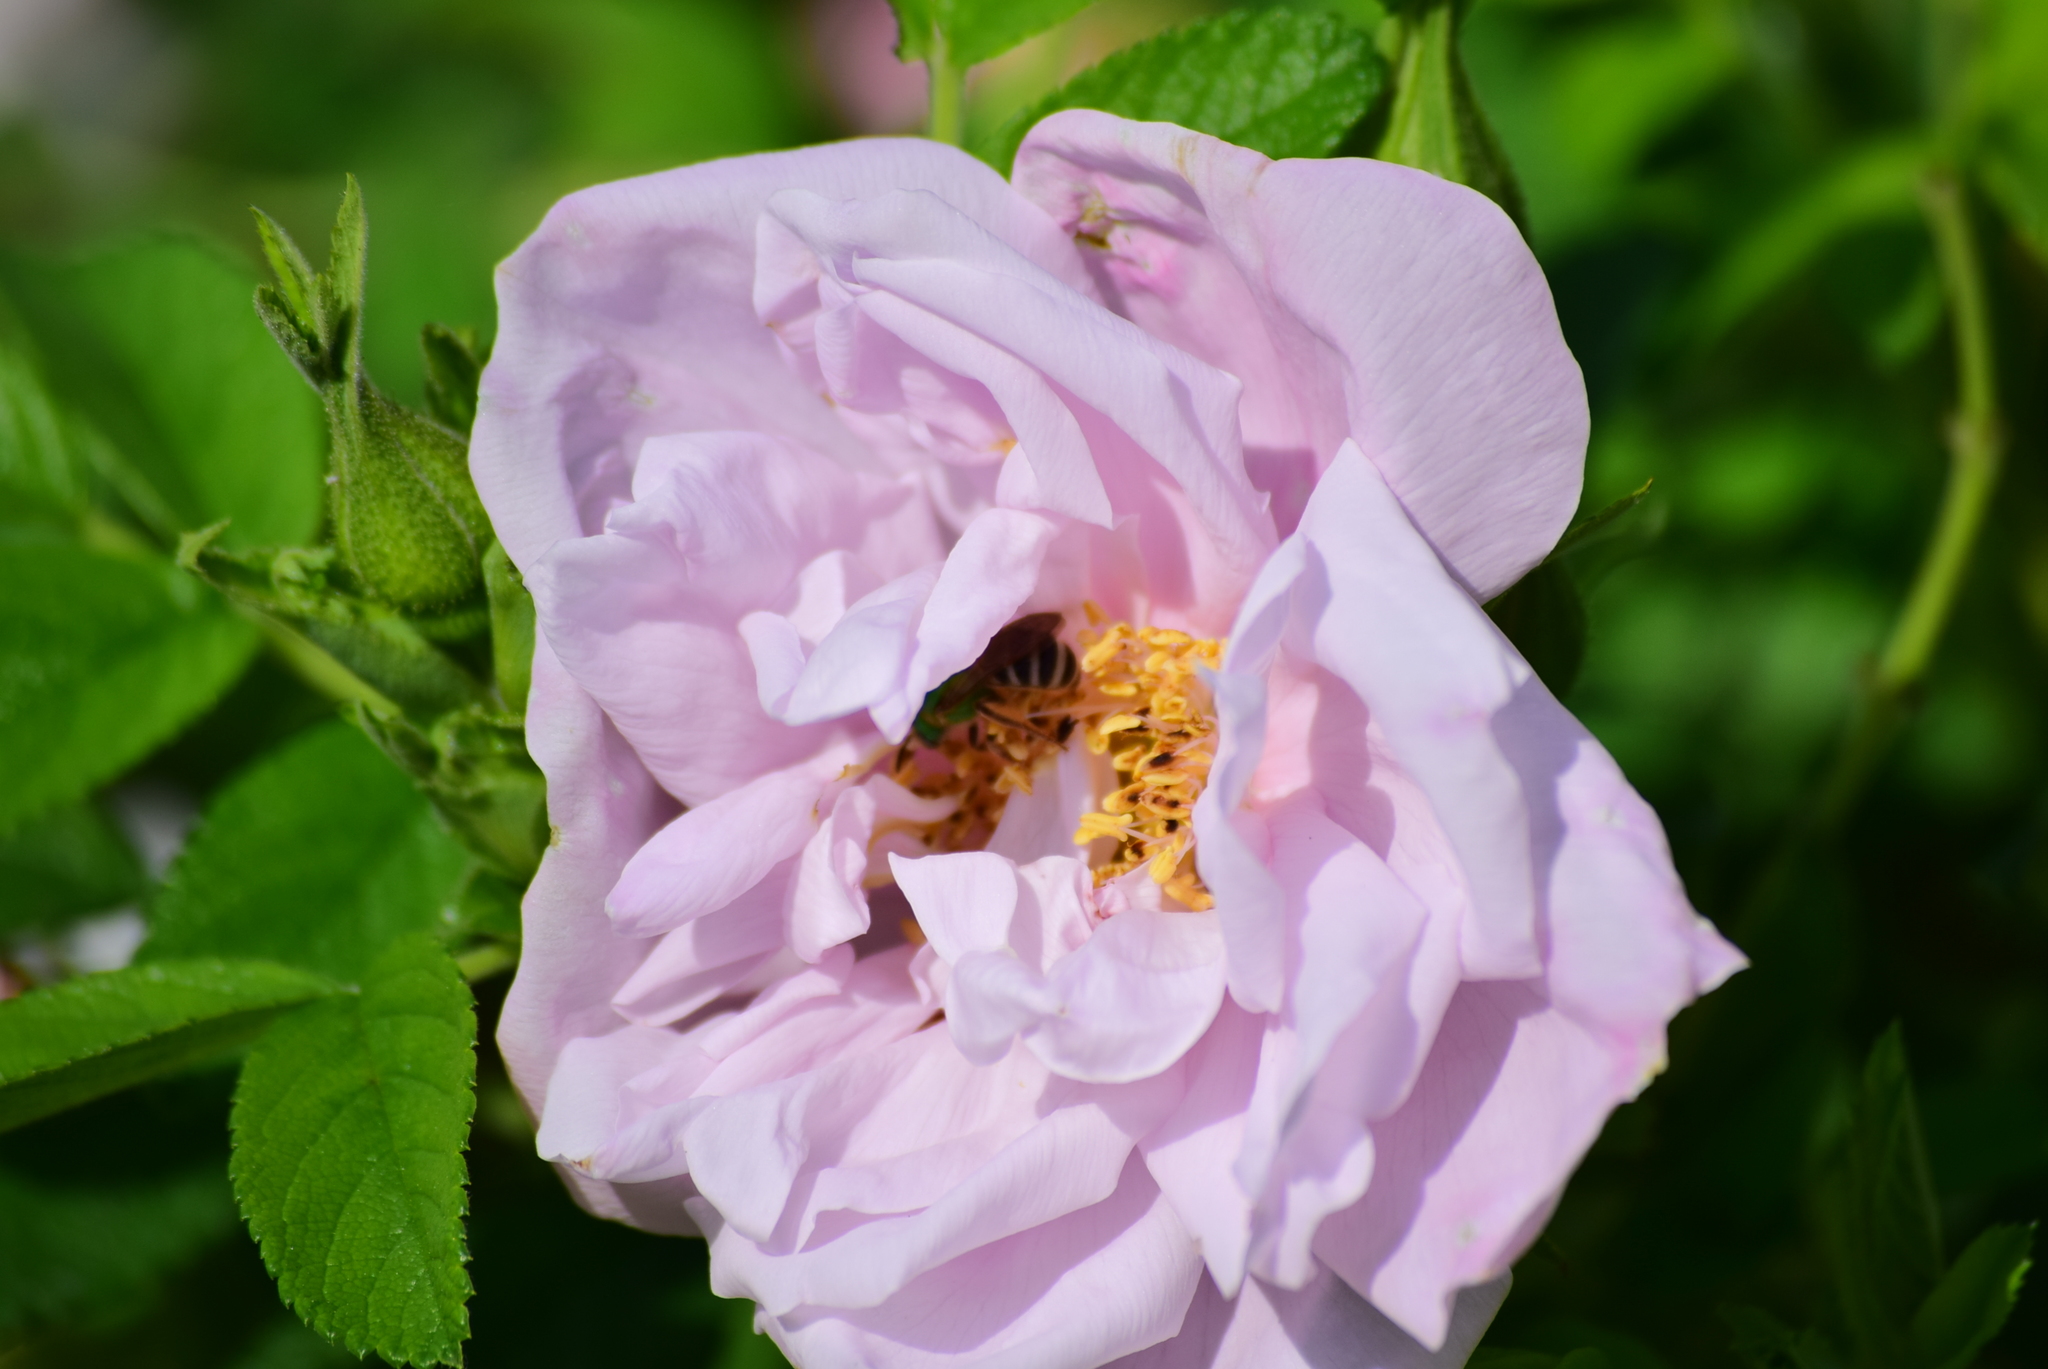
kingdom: Animalia
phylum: Arthropoda
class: Insecta
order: Hymenoptera
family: Halictidae
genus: Agapostemon
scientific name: Agapostemon virescens
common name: Bicolored striped sweat bee
